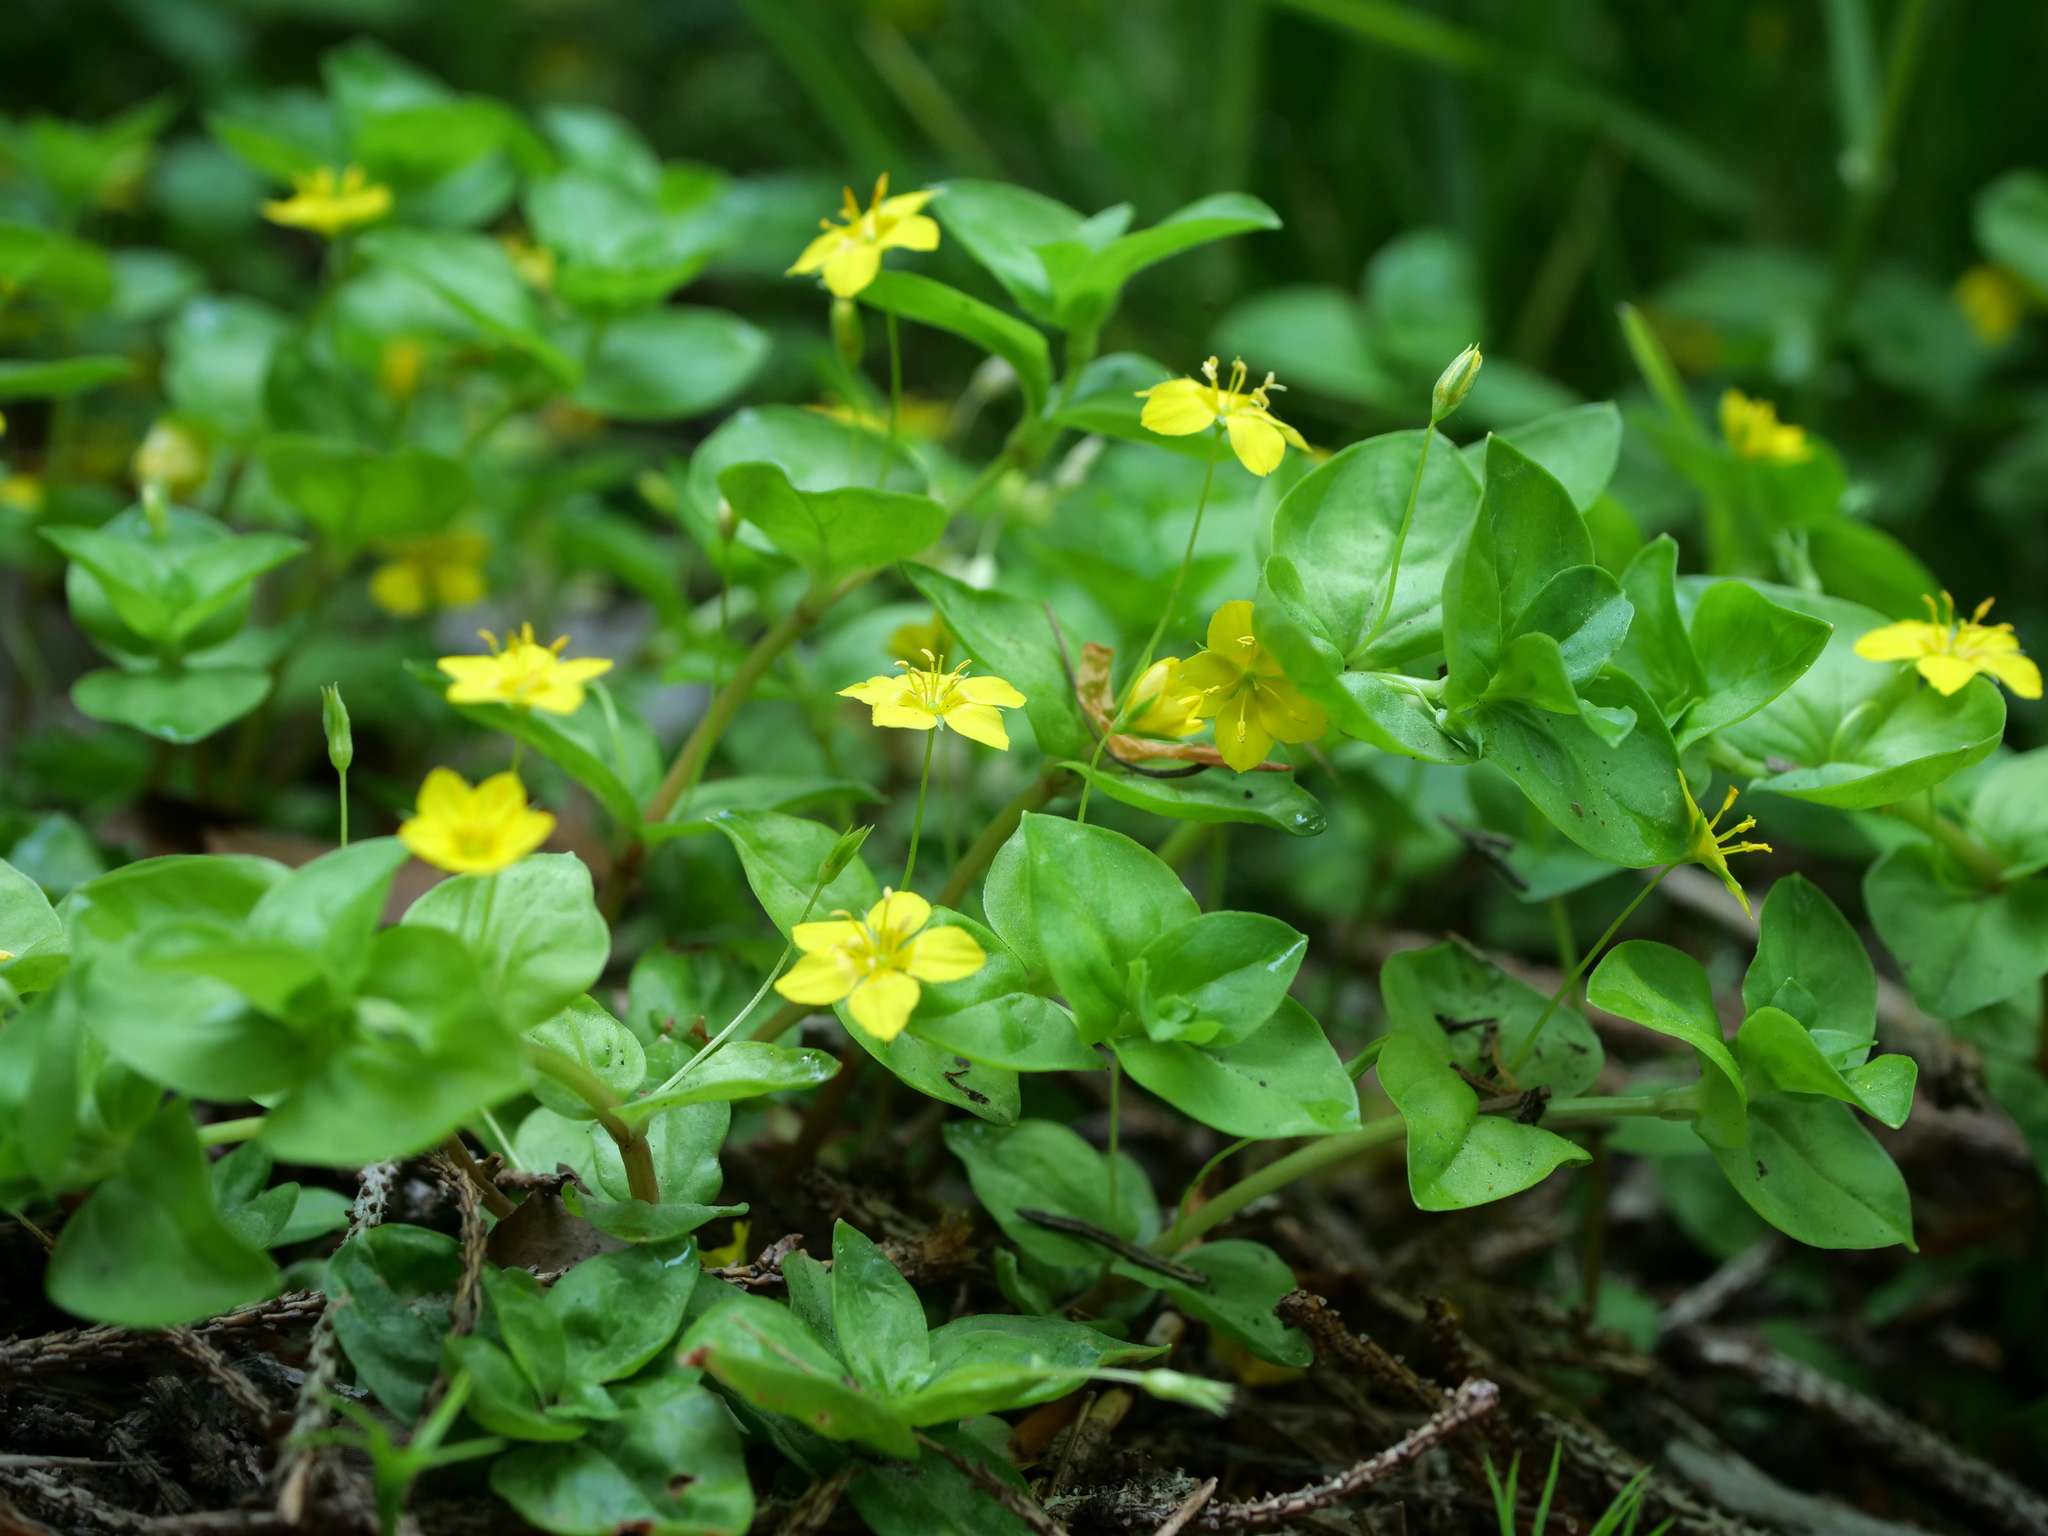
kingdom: Plantae
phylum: Tracheophyta
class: Magnoliopsida
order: Ericales
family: Primulaceae
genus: Lysimachia
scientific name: Lysimachia nemorum
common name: Yellow pimpernel
